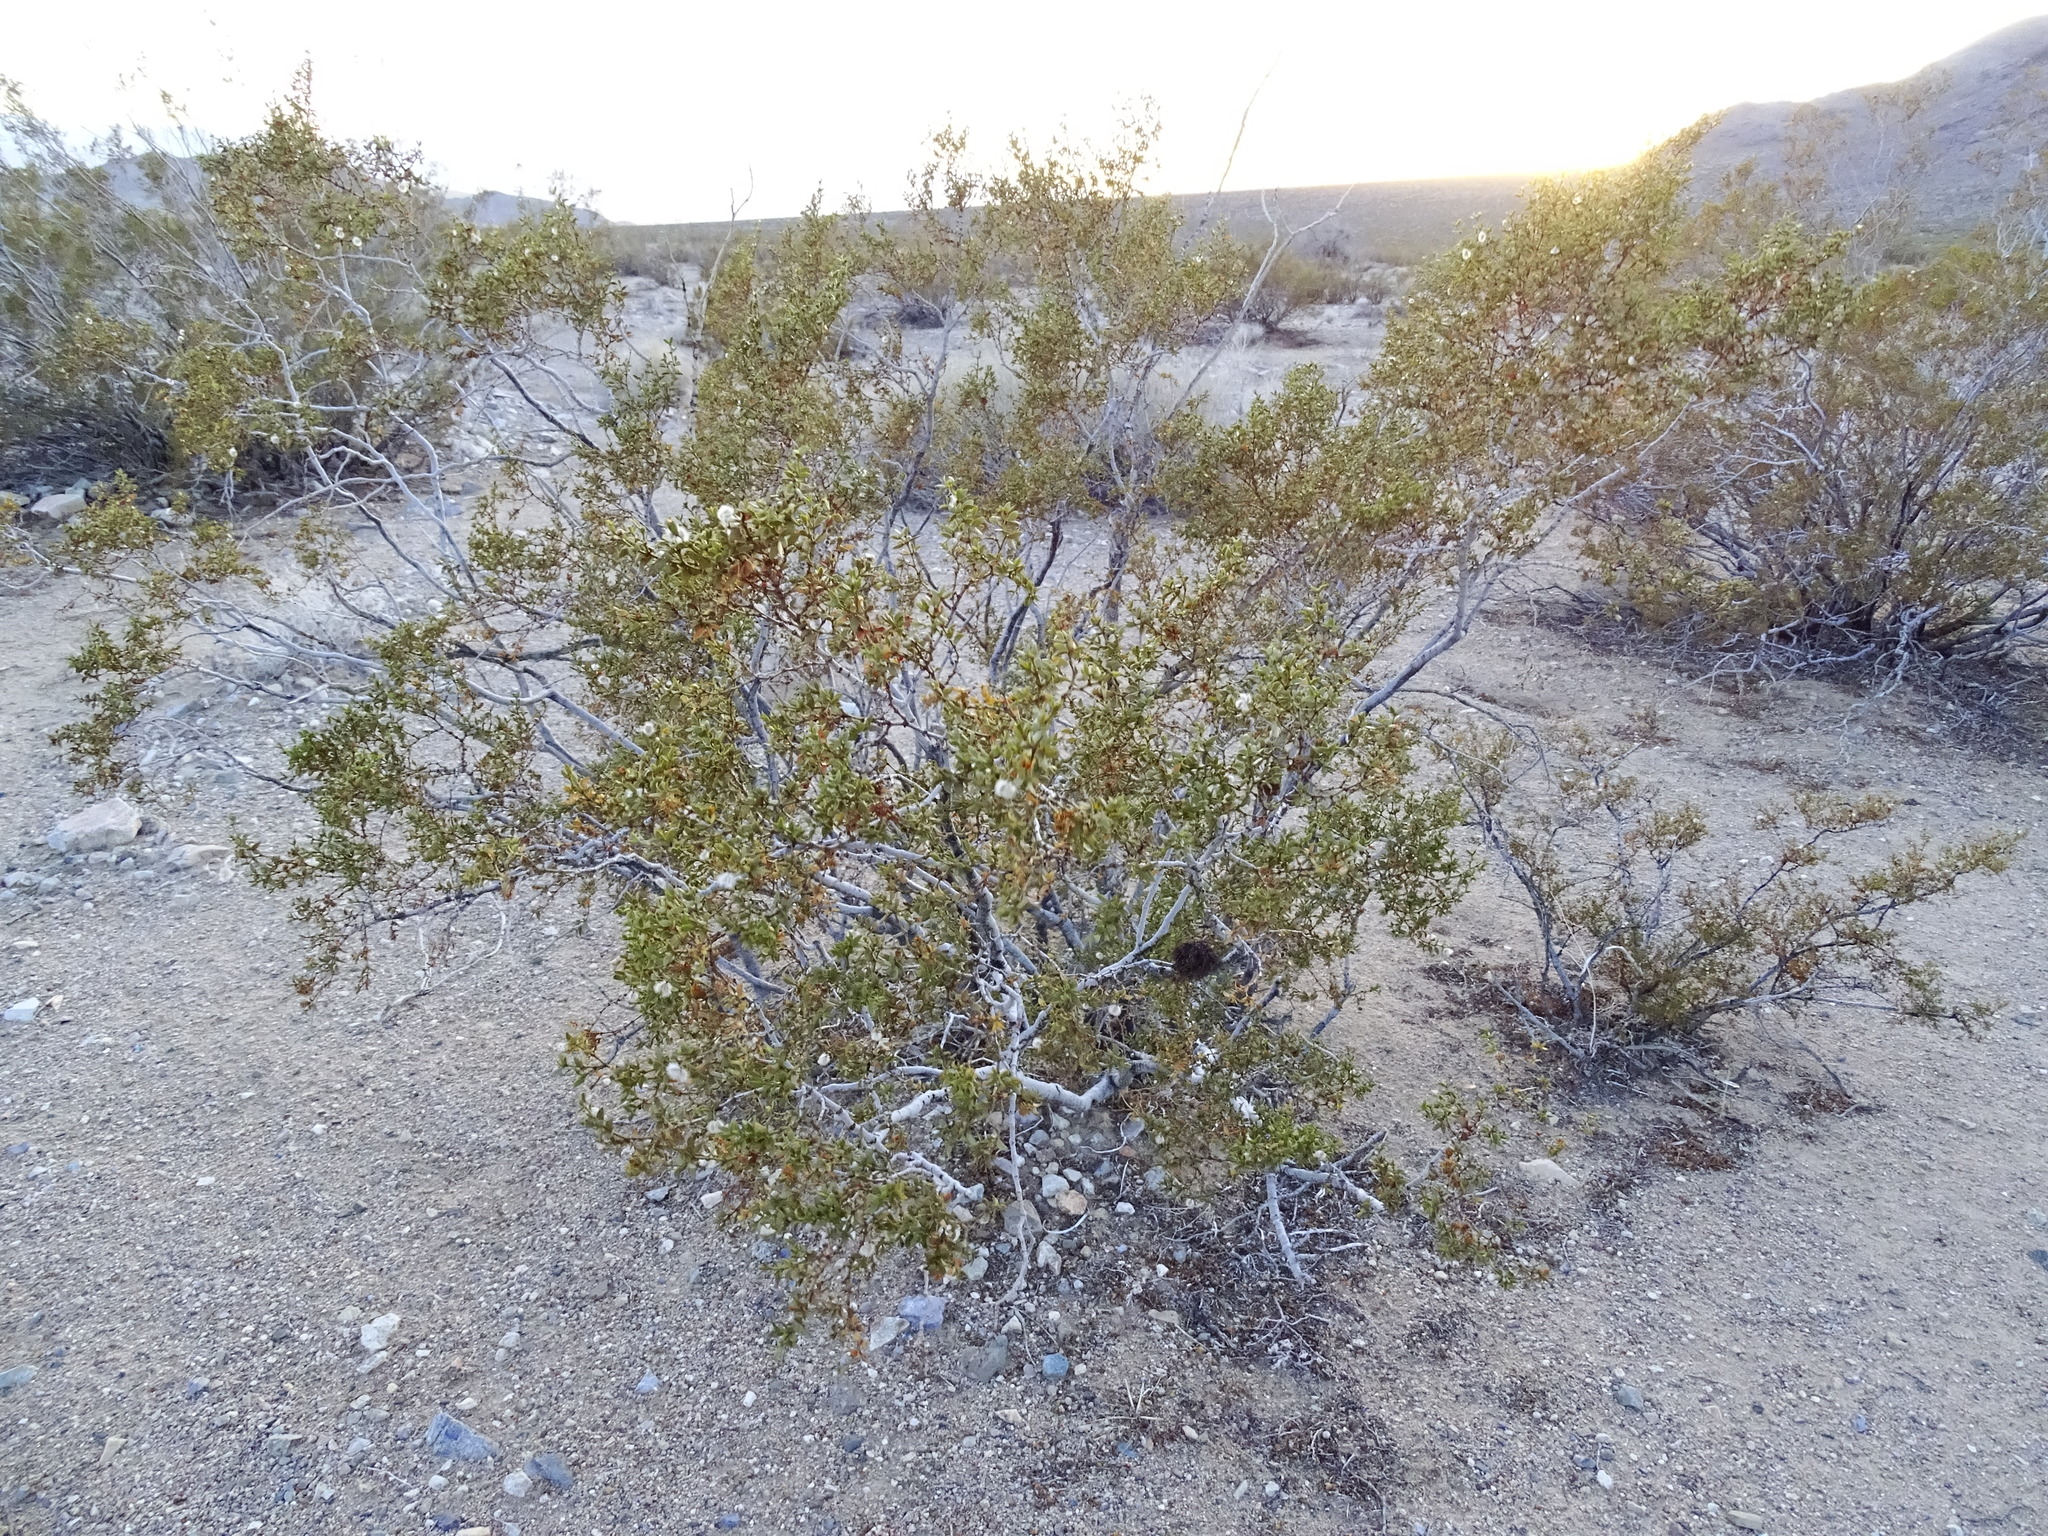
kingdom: Plantae
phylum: Tracheophyta
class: Magnoliopsida
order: Zygophyllales
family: Zygophyllaceae
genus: Larrea
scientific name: Larrea tridentata
